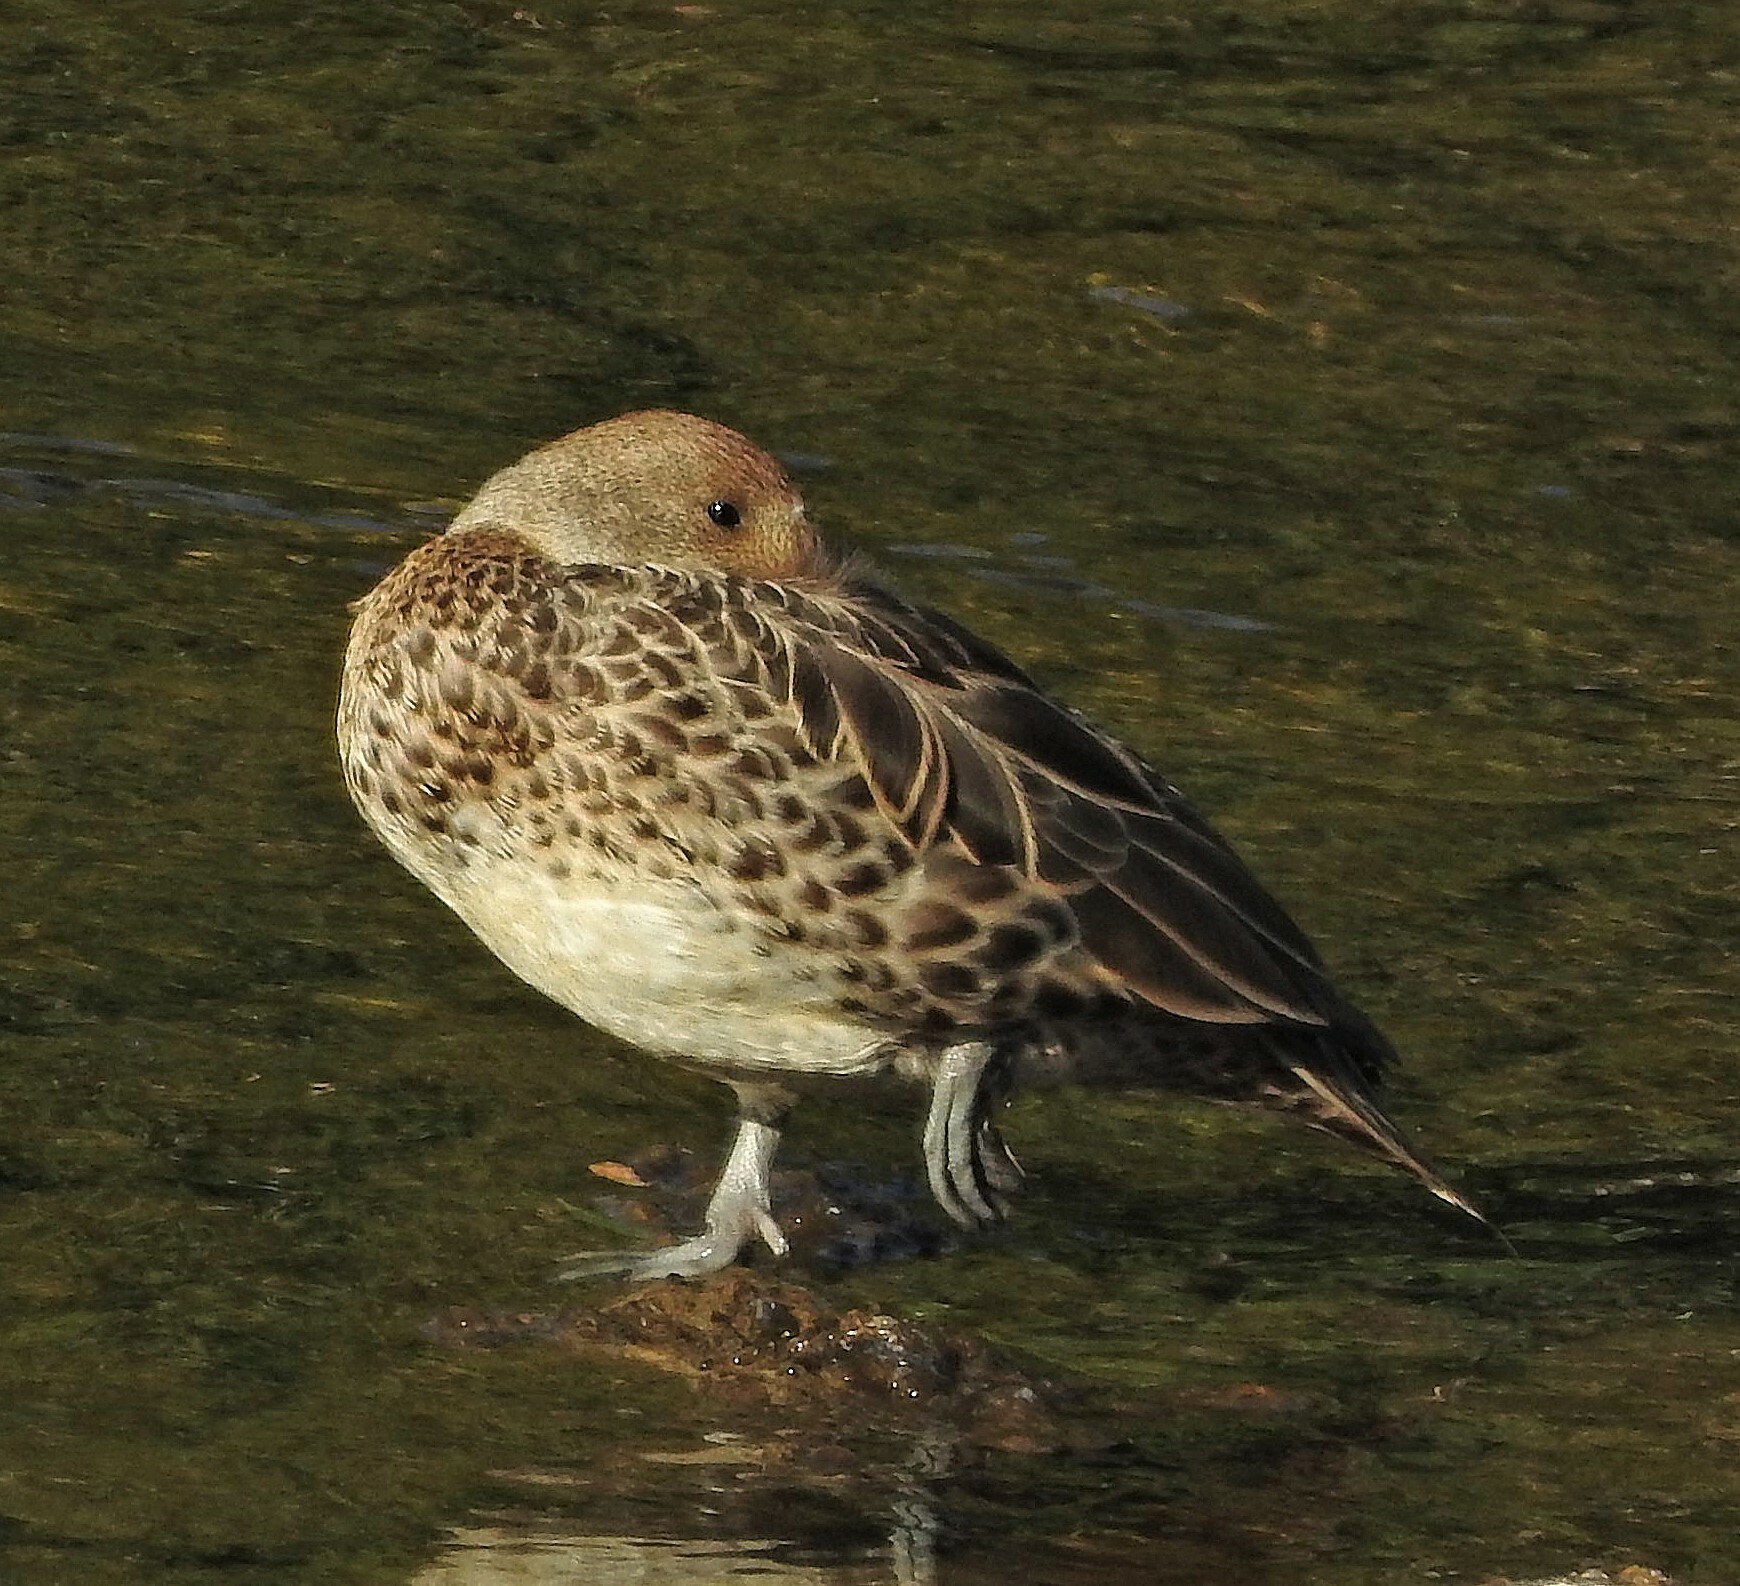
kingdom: Animalia
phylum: Chordata
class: Aves
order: Anseriformes
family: Anatidae
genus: Anas
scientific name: Anas georgica
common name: Yellow-billed pintail
